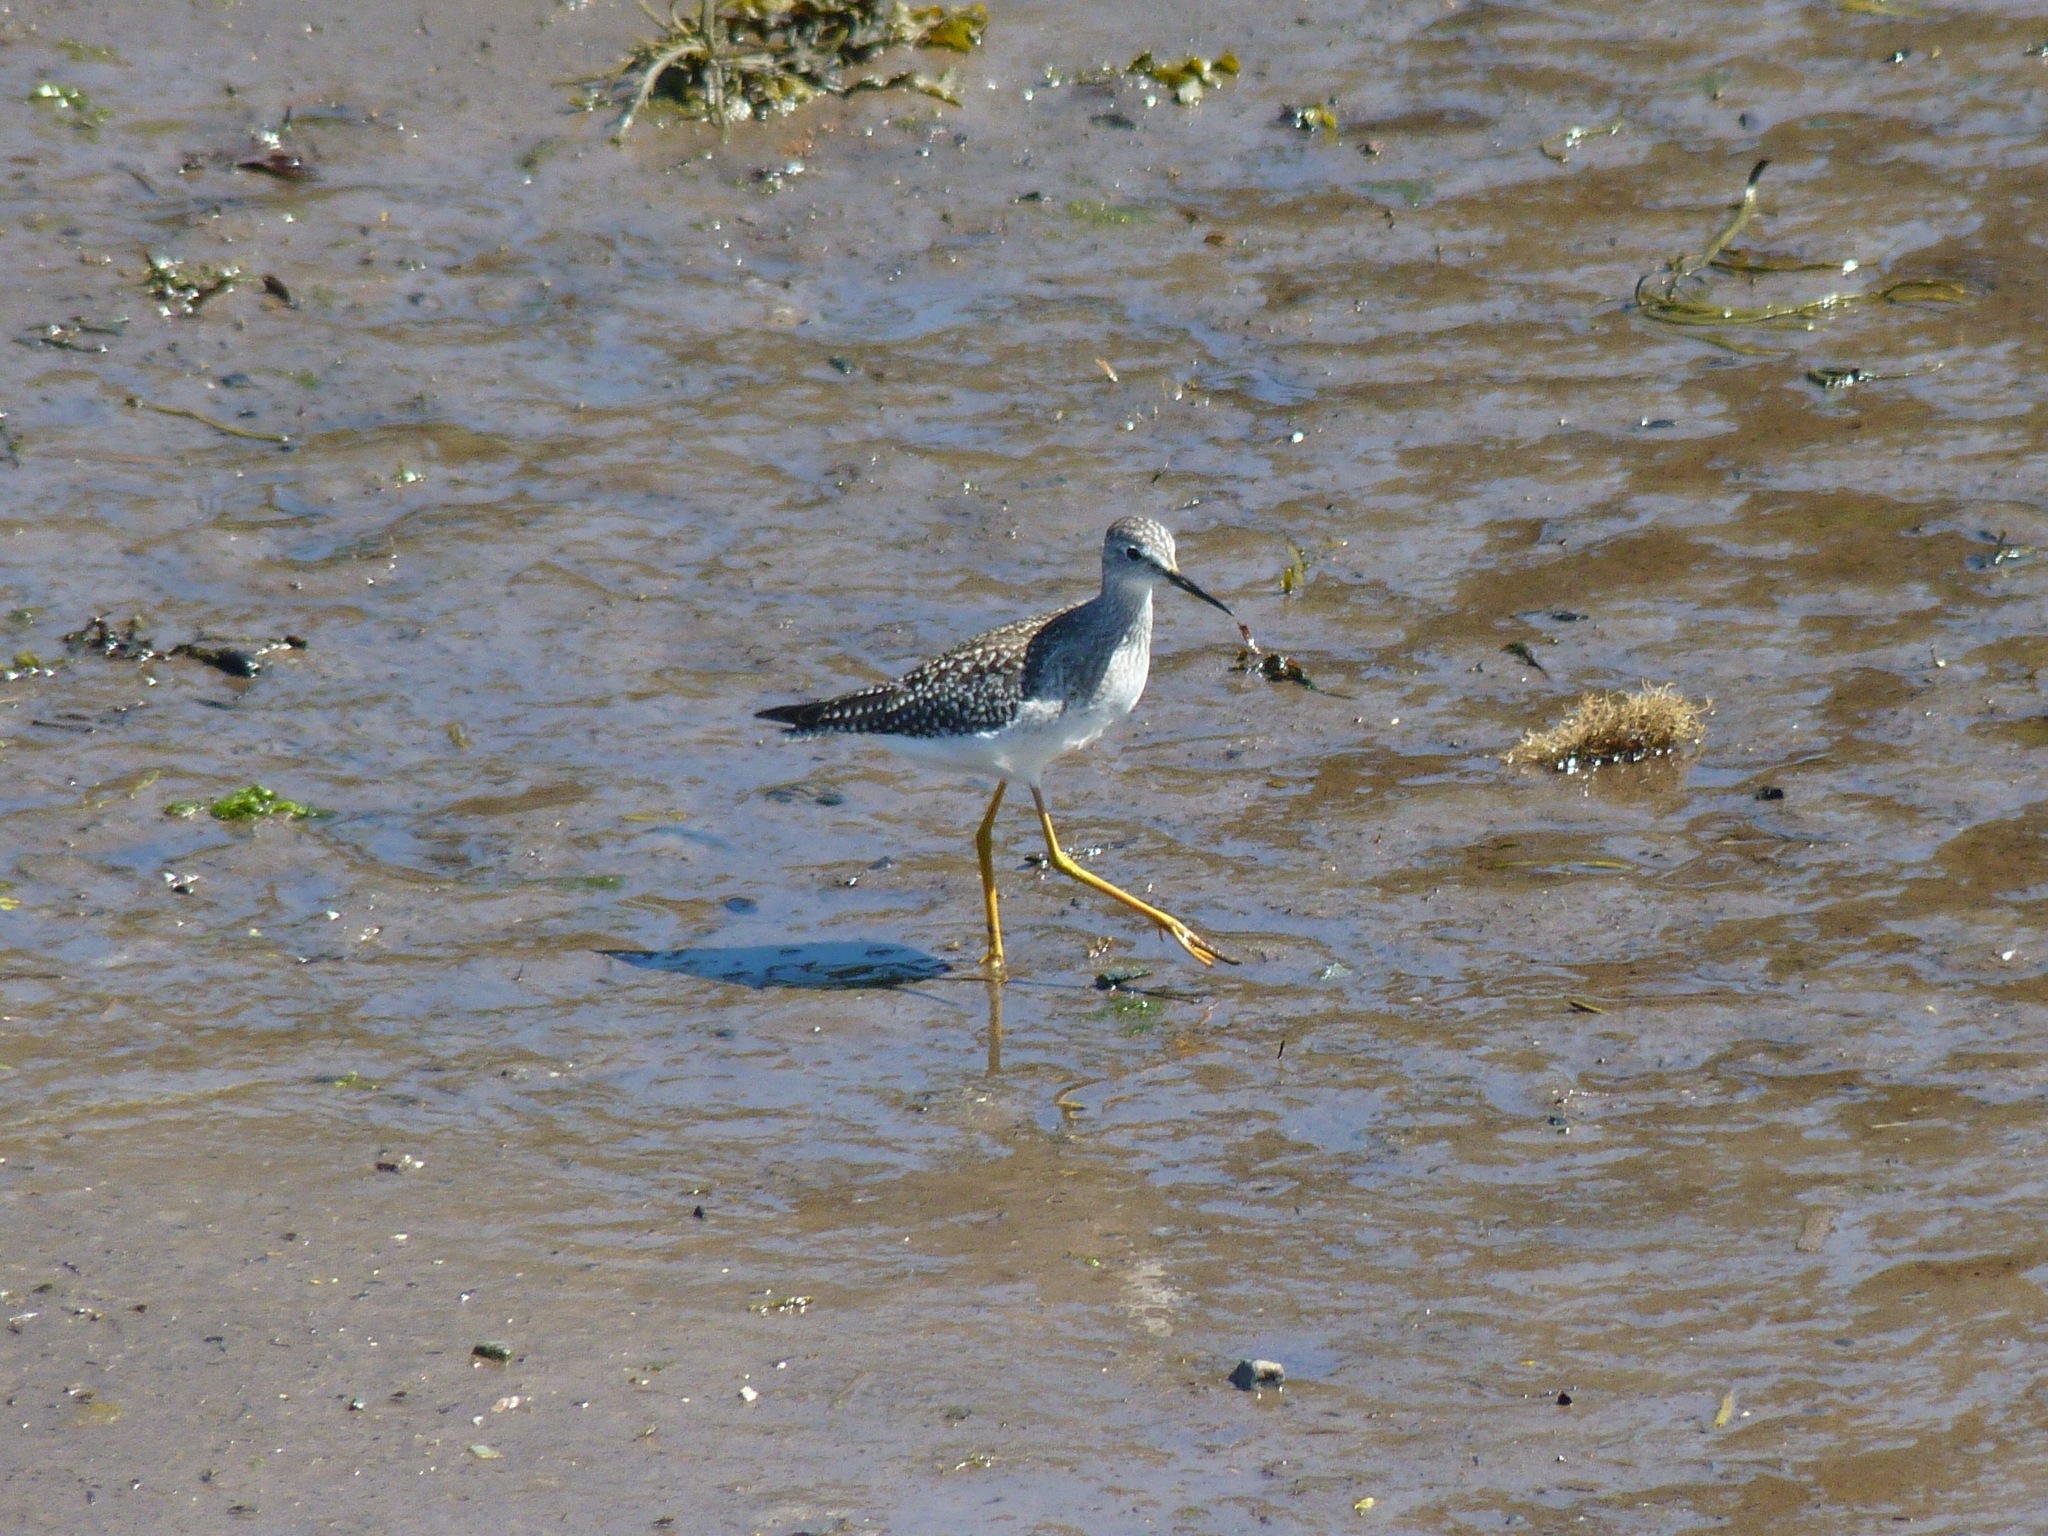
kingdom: Animalia
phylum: Chordata
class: Aves
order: Charadriiformes
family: Scolopacidae
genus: Tringa
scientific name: Tringa flavipes
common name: Lesser yellowlegs
